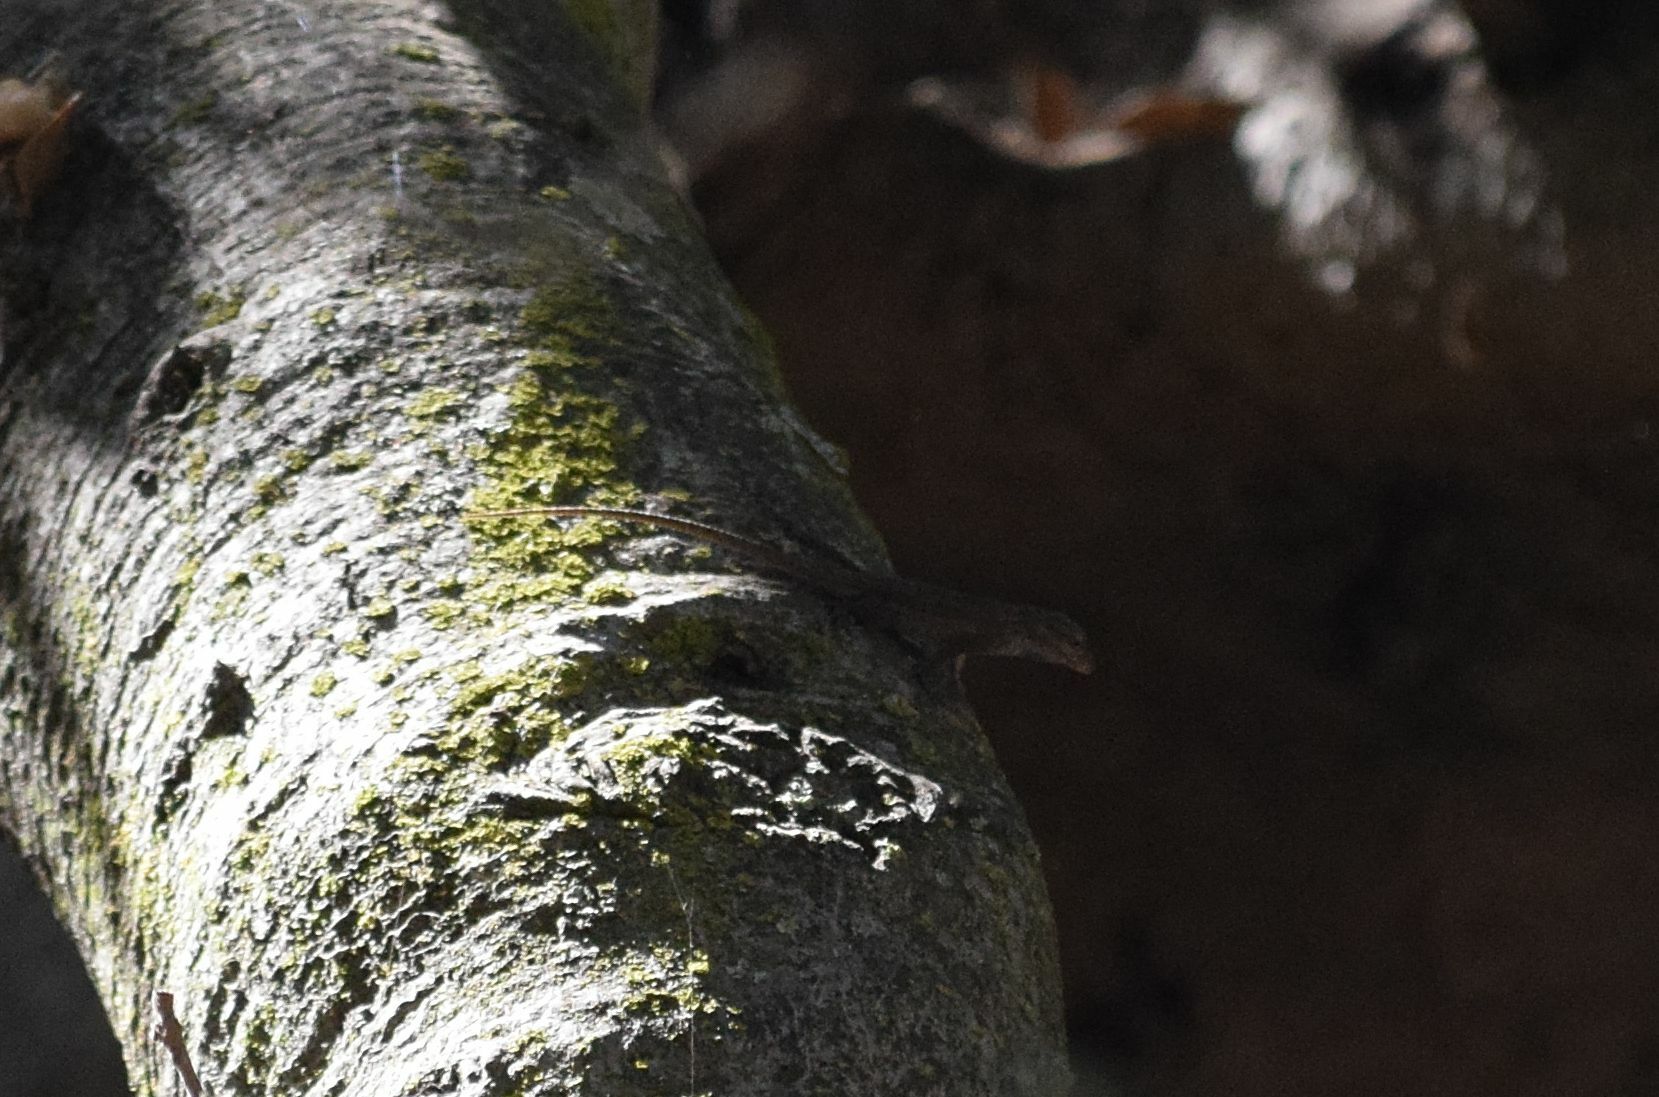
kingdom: Animalia
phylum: Chordata
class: Squamata
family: Phrynosomatidae
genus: Sceloporus
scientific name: Sceloporus occidentalis
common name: Western fence lizard
